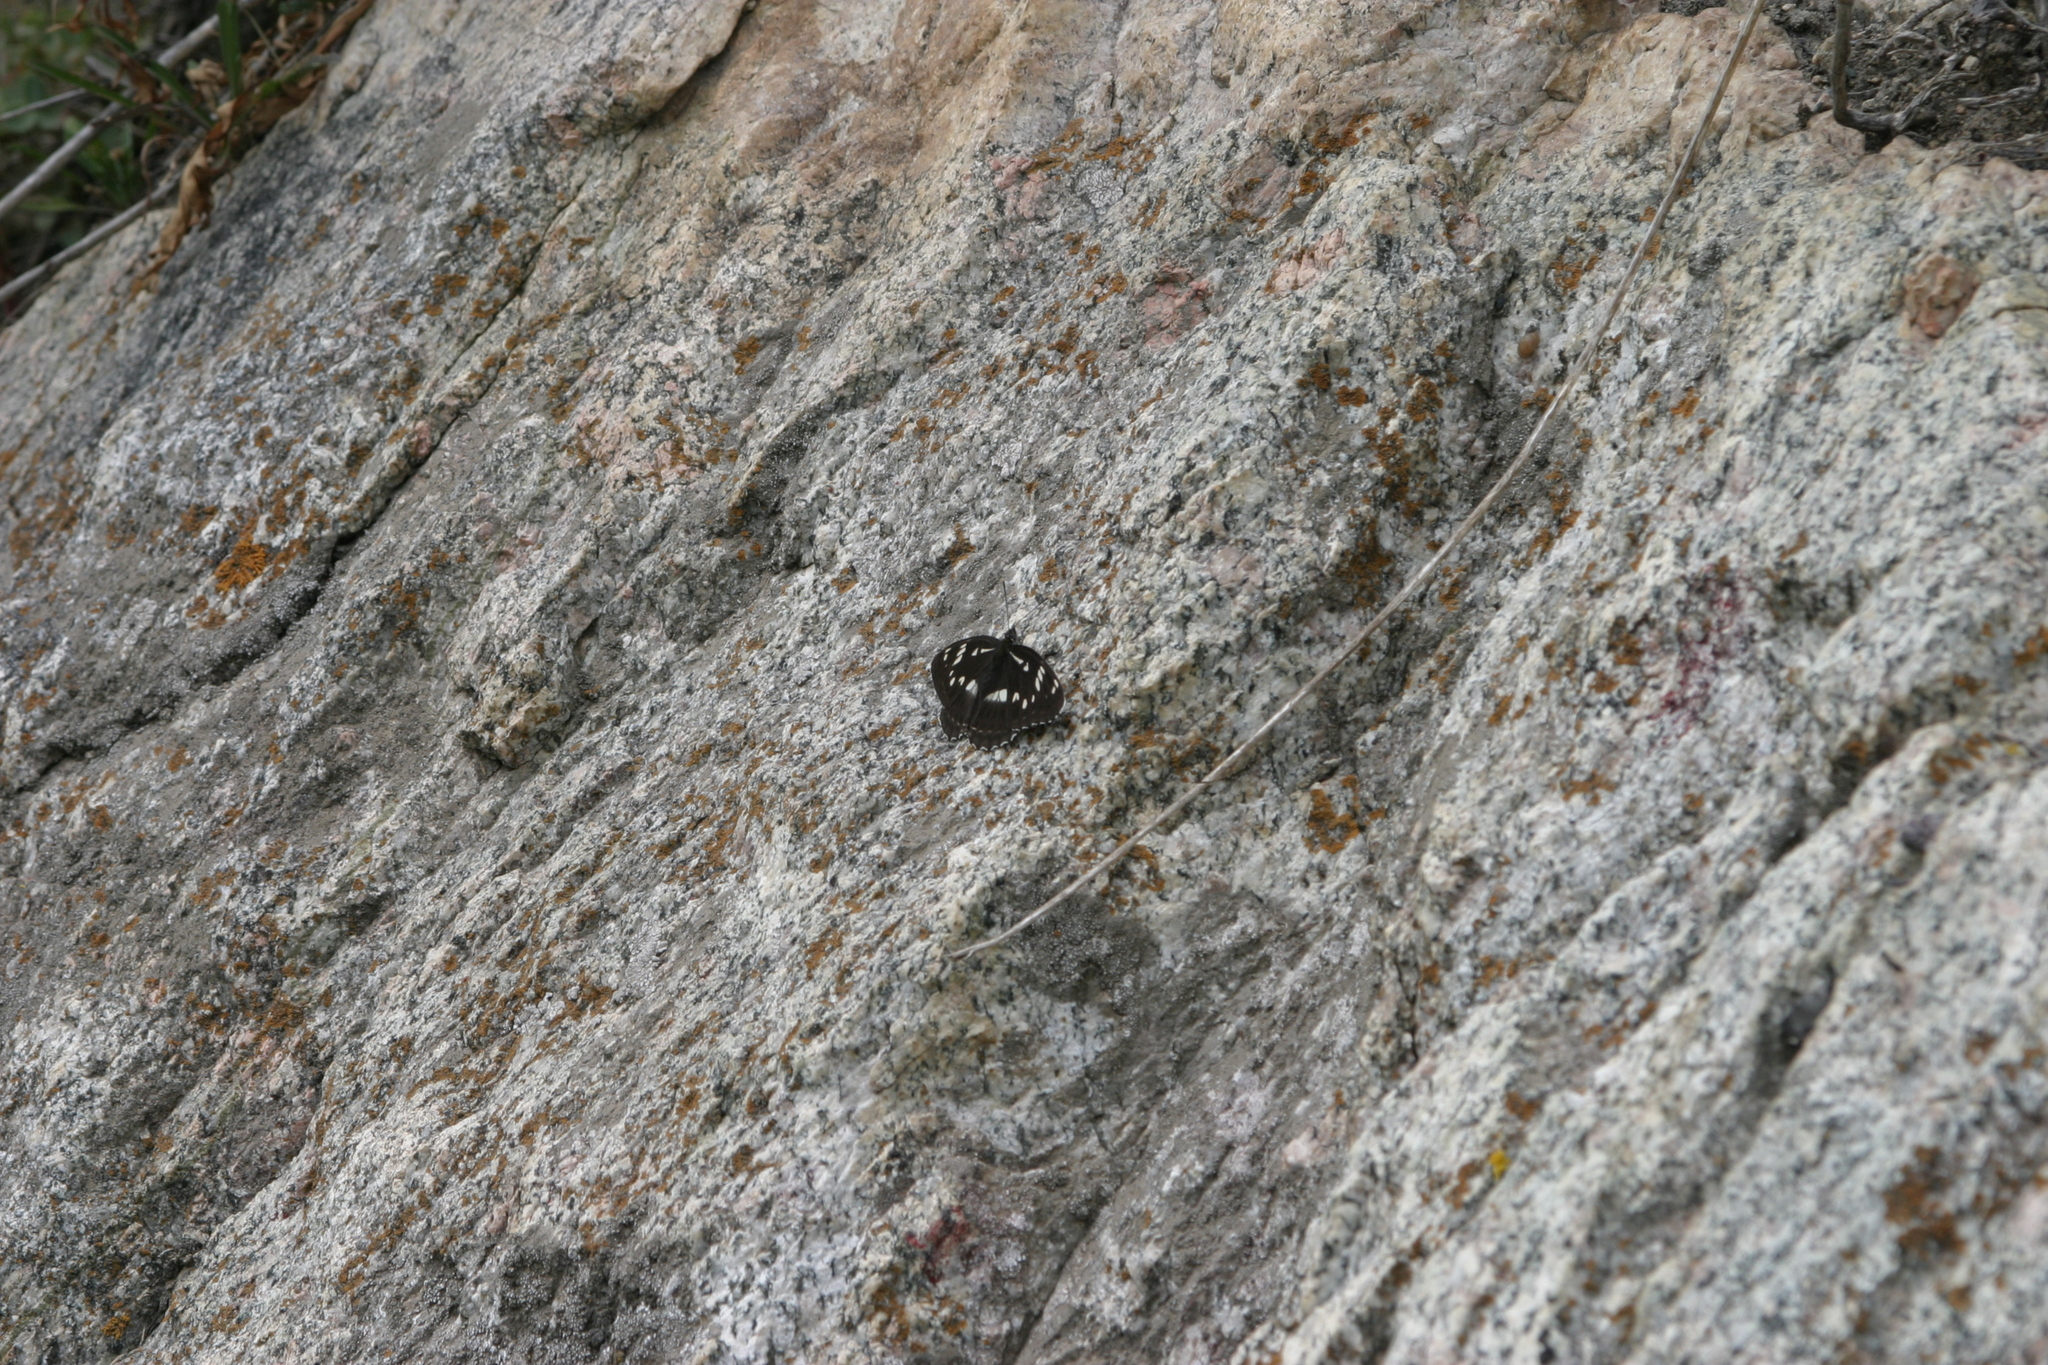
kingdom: Animalia
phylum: Arthropoda
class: Insecta
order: Lepidoptera
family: Nymphalidae
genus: Limenitis
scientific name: Limenitis helmanni
